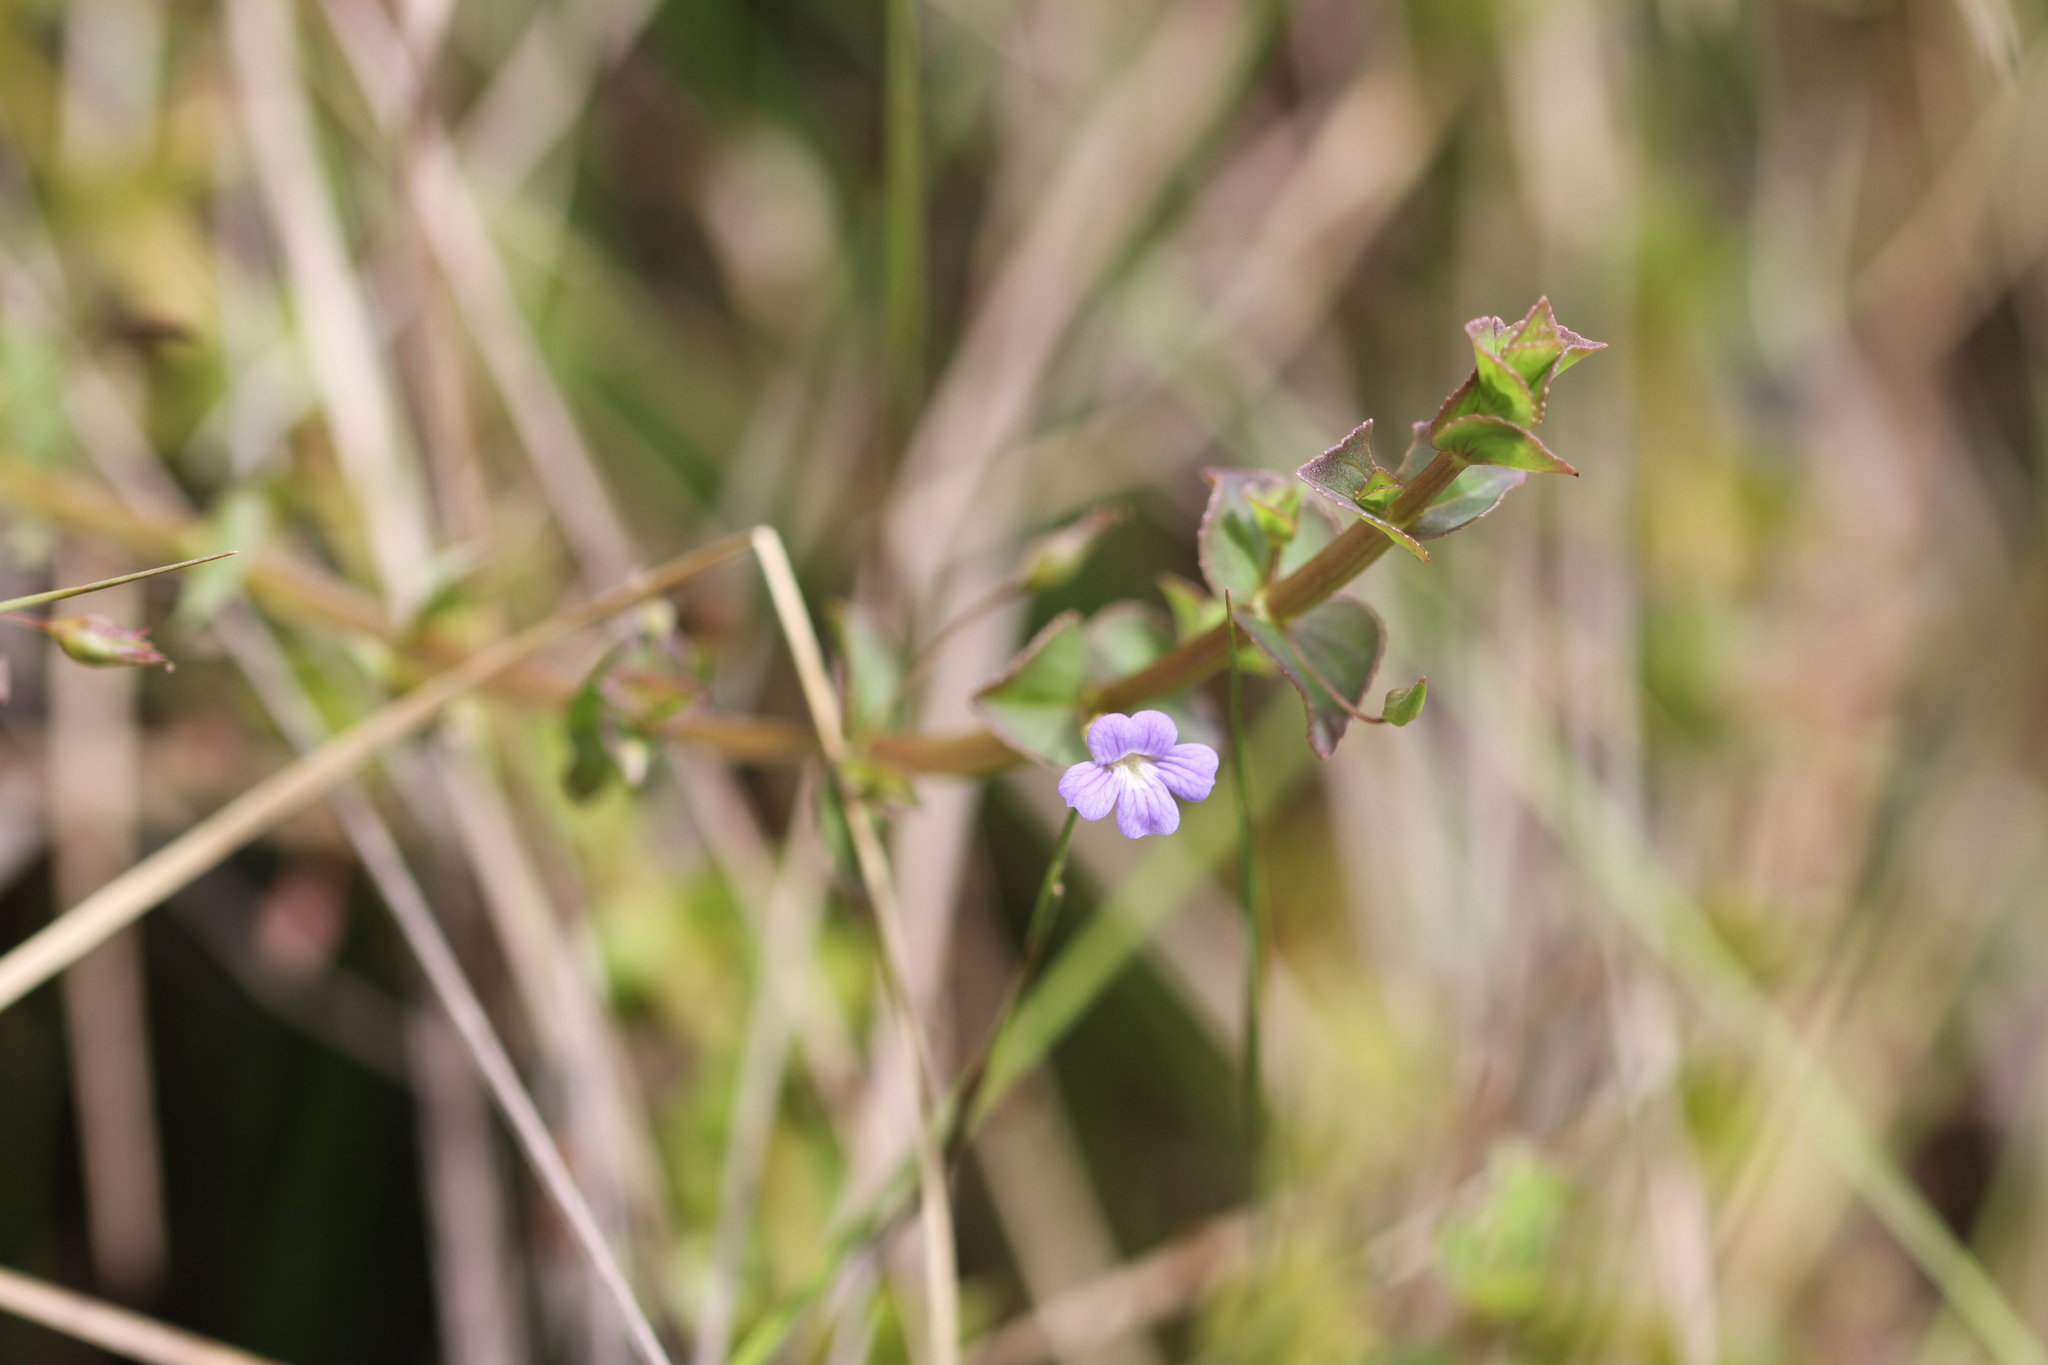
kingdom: Plantae
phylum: Tracheophyta
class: Magnoliopsida
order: Lamiales
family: Plantaginaceae
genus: Conobea
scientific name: Conobea aquatica
